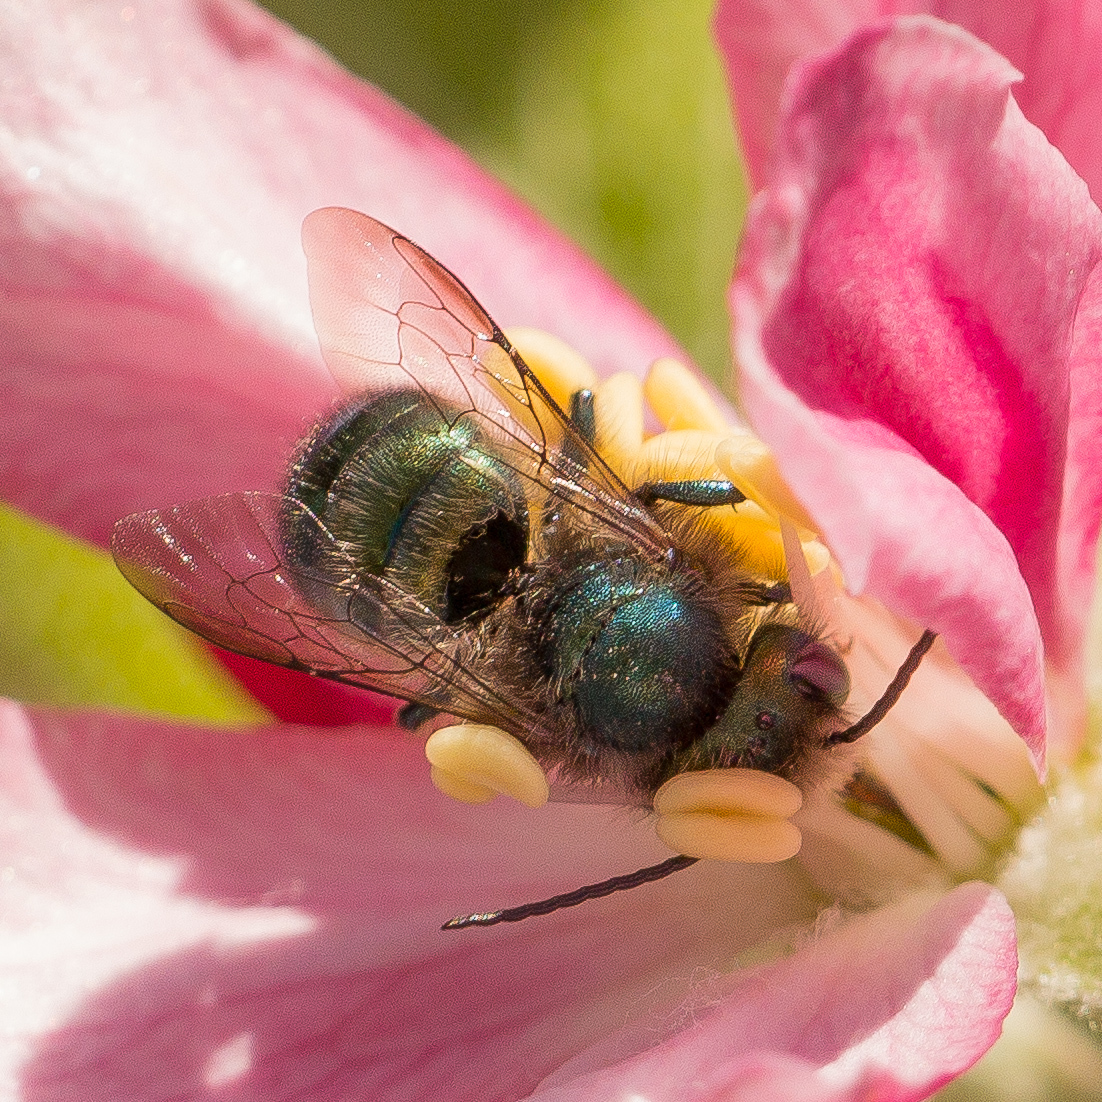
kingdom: Animalia
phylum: Arthropoda
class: Insecta
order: Hymenoptera
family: Megachilidae
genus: Osmia
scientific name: Osmia ribifloris
